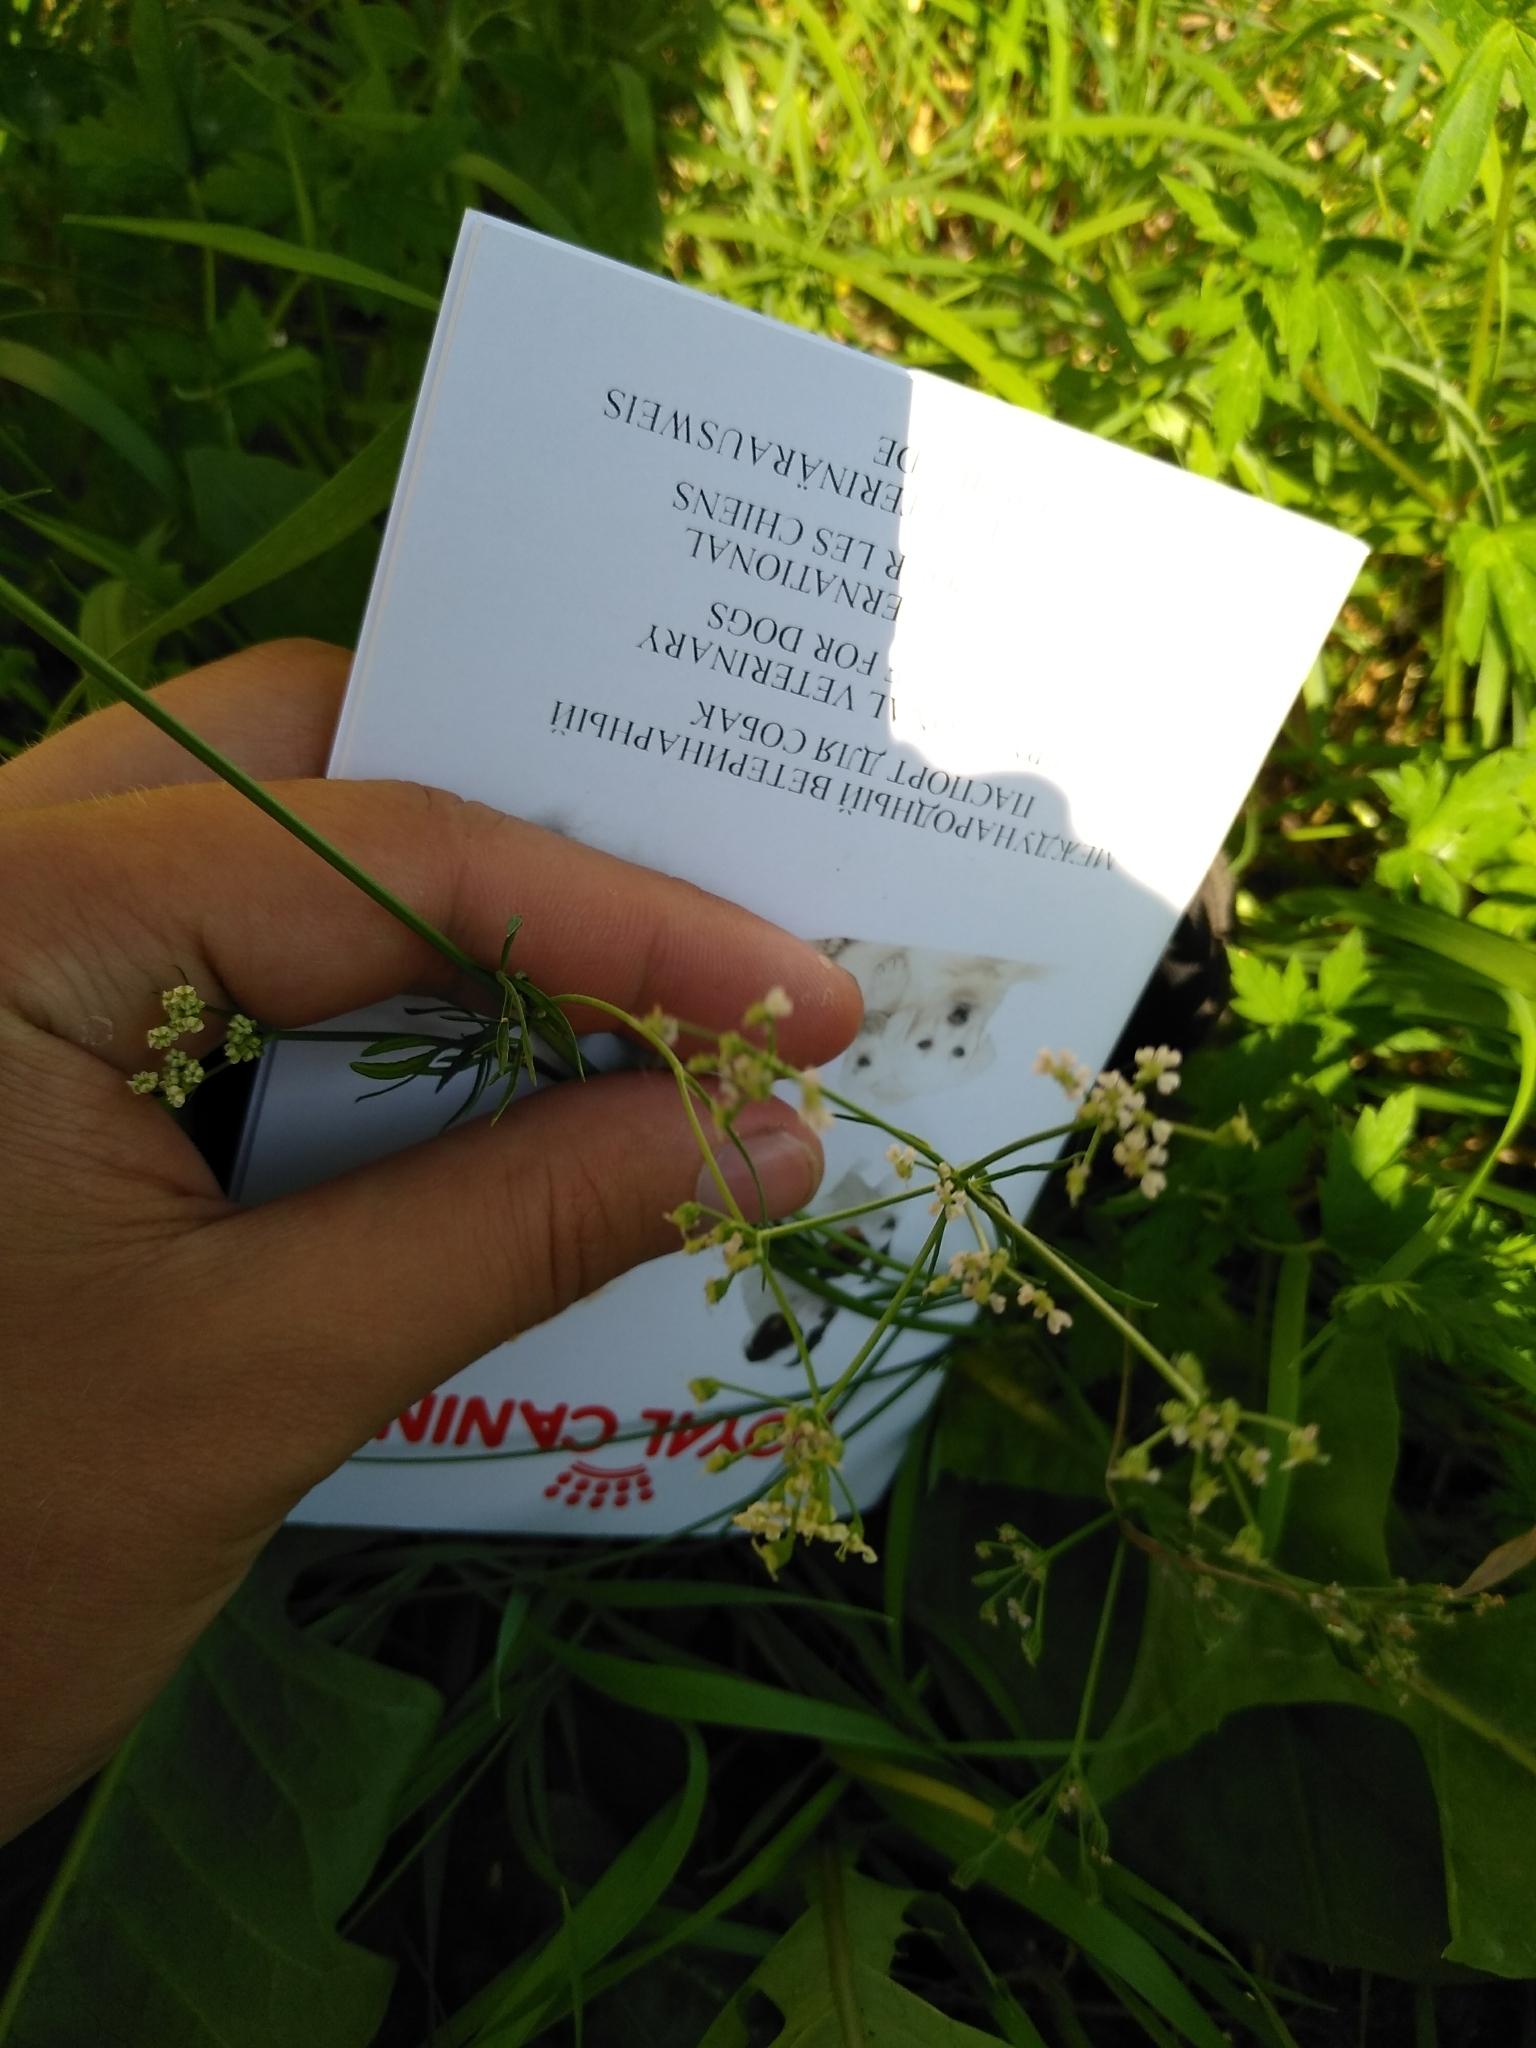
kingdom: Plantae
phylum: Tracheophyta
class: Magnoliopsida
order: Apiales
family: Apiaceae
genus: Carum
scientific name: Carum carvi
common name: Caraway
